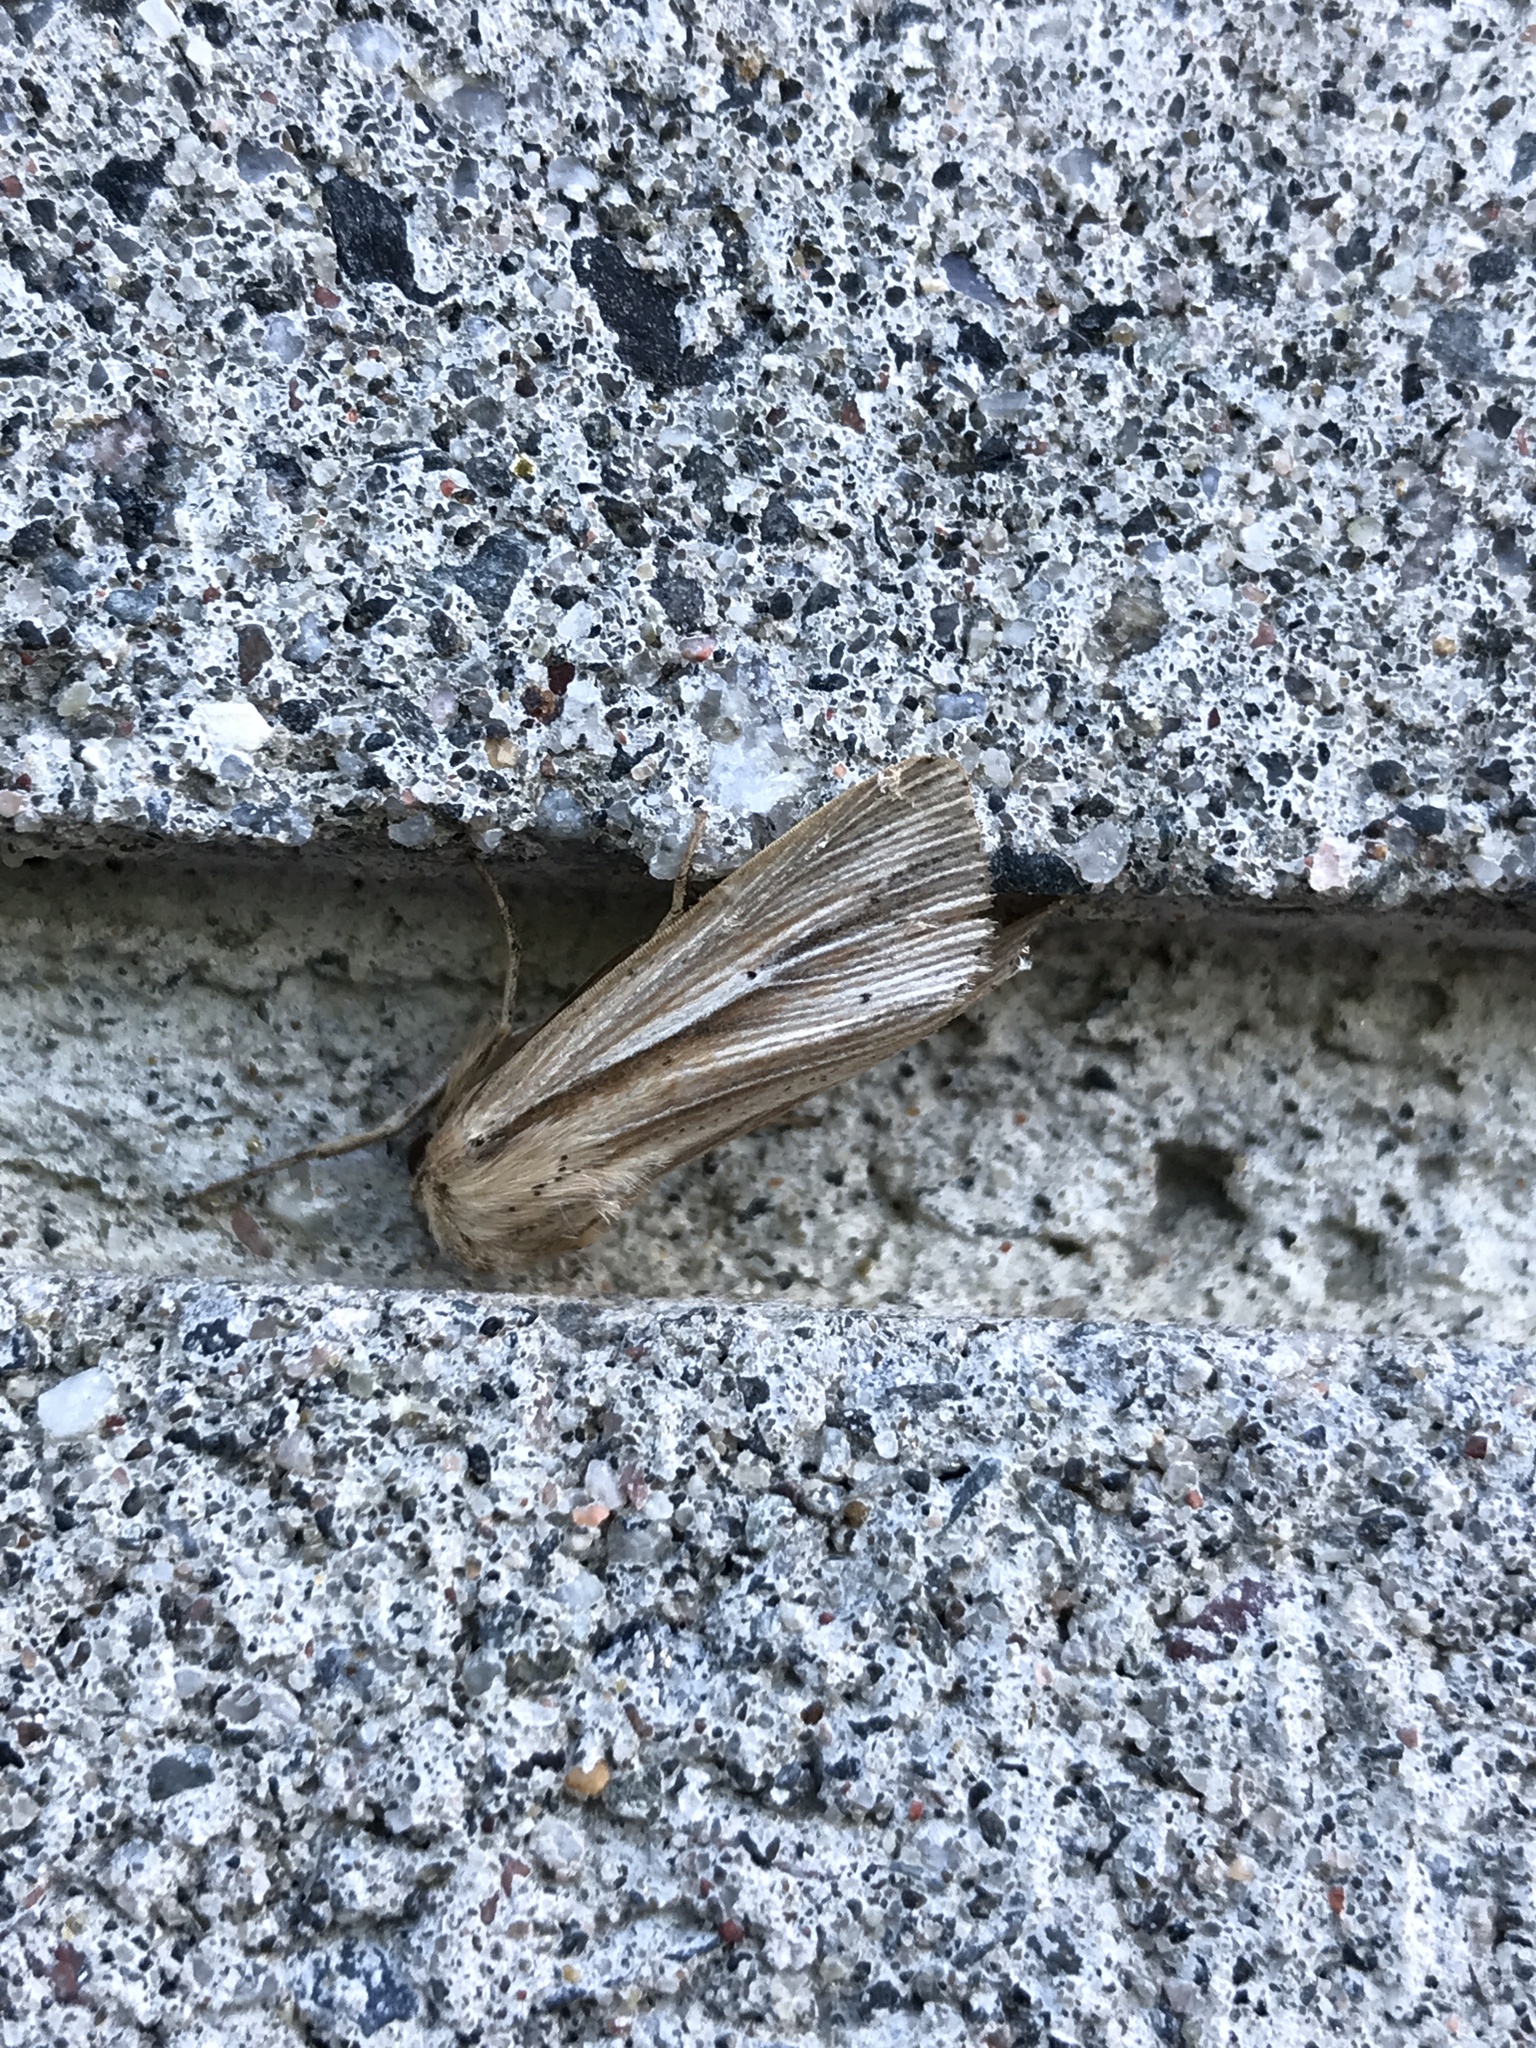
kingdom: Animalia
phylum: Arthropoda
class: Insecta
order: Lepidoptera
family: Noctuidae
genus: Leucania
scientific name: Leucania commoides
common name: Two-lined wainscot
